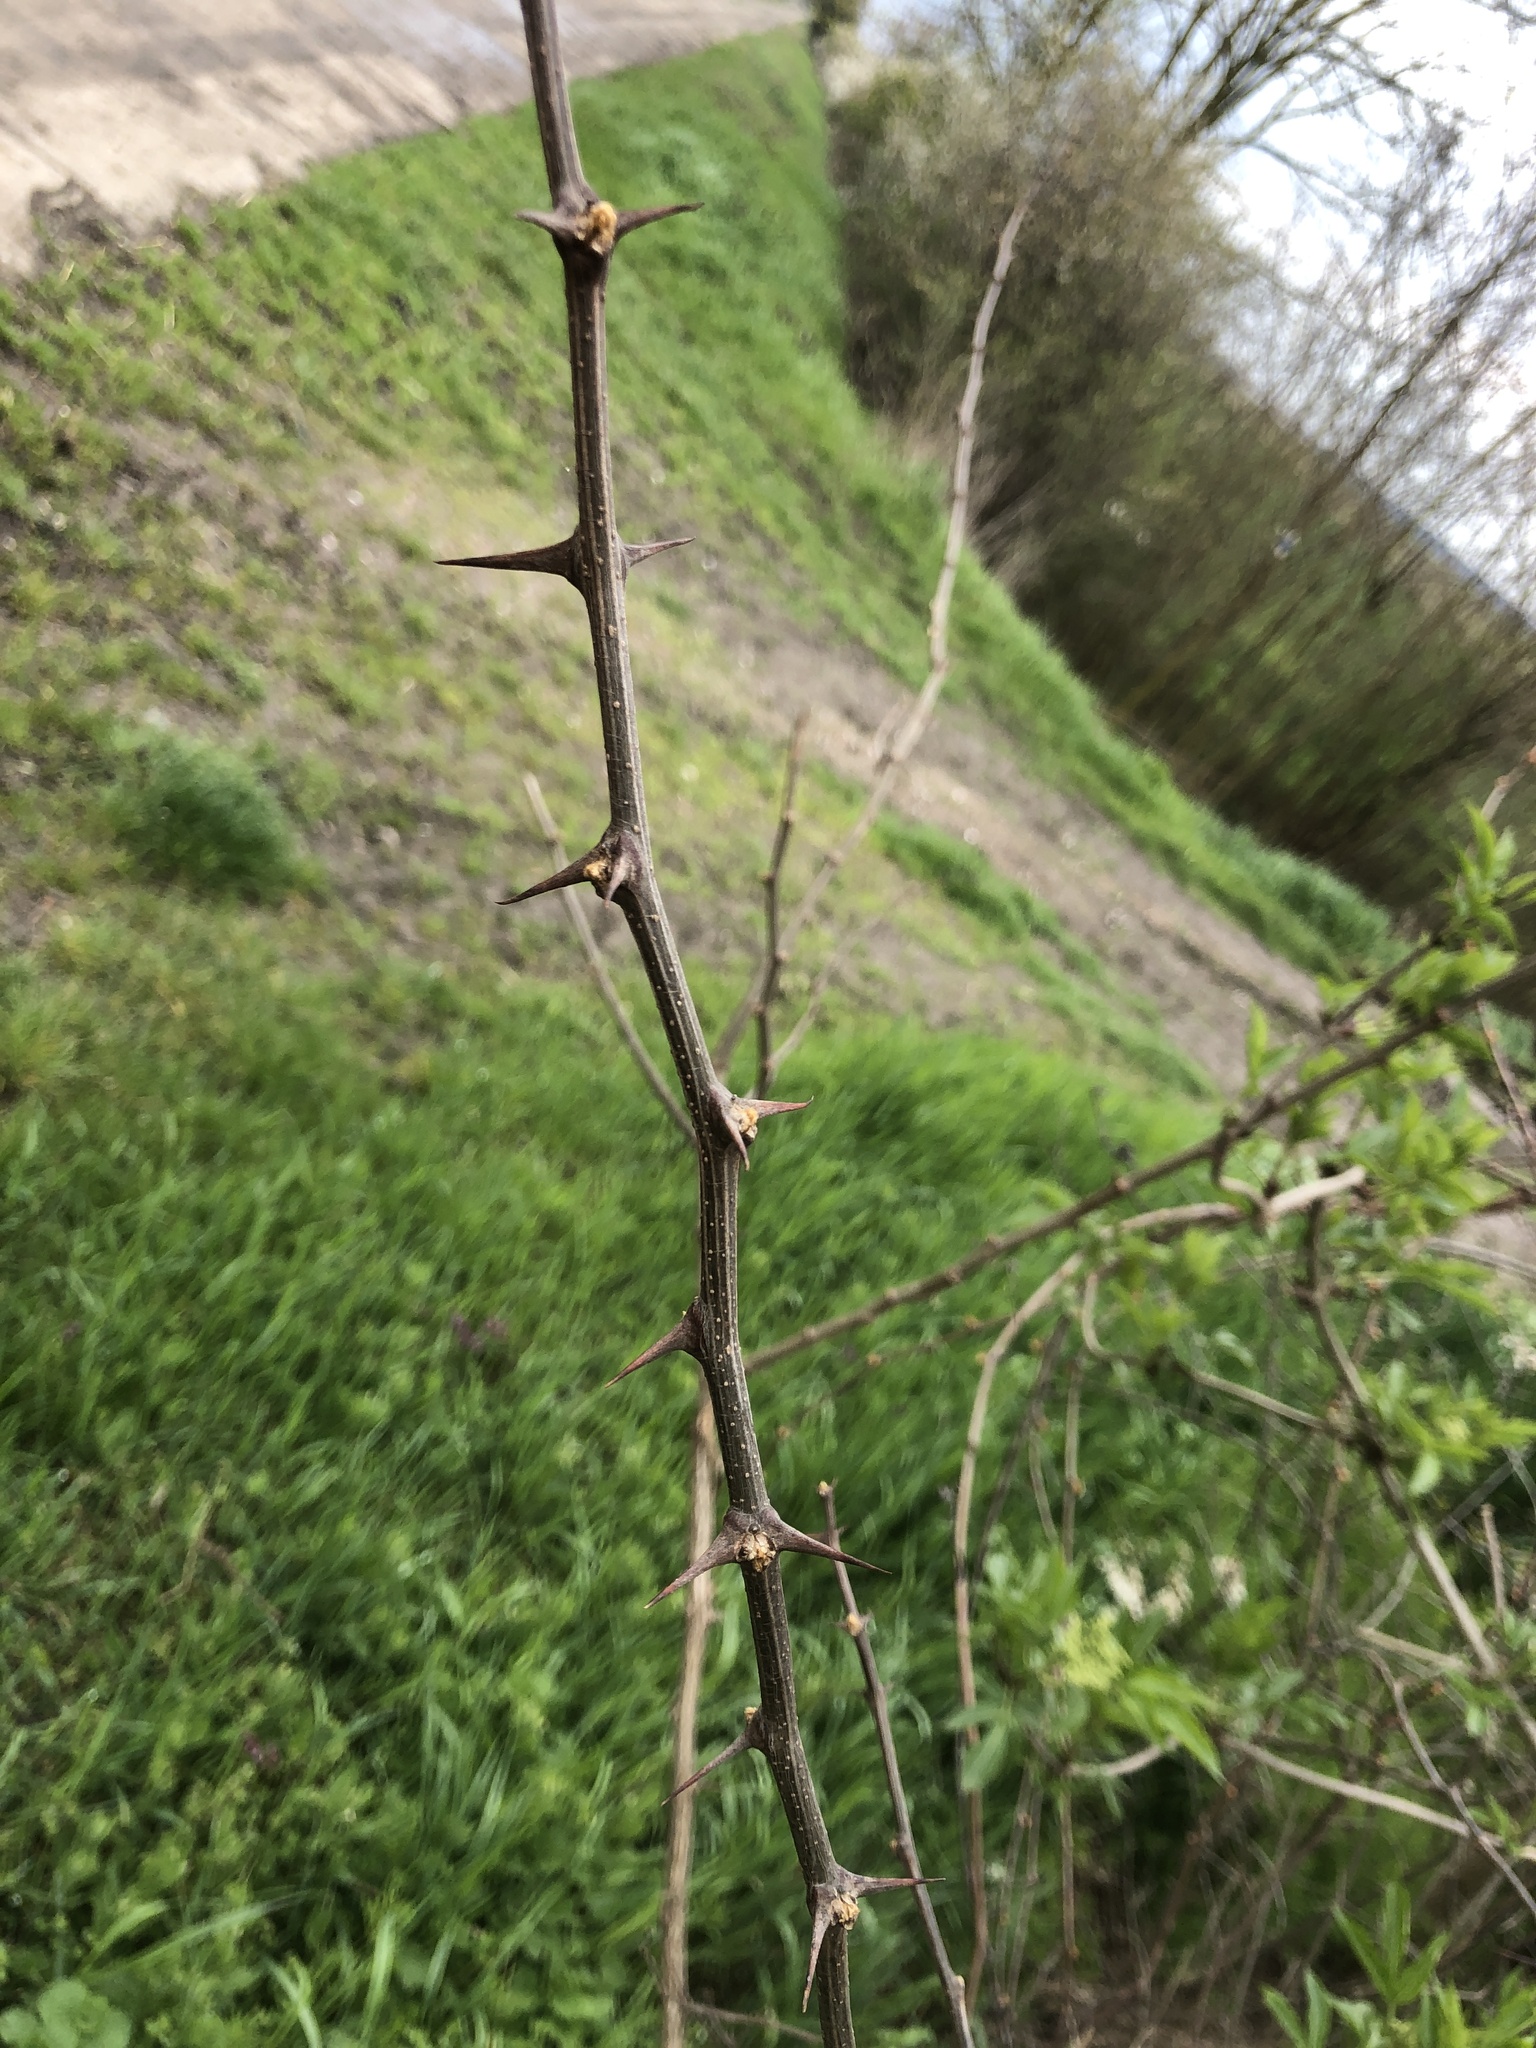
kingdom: Plantae
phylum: Tracheophyta
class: Magnoliopsida
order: Fabales
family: Fabaceae
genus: Robinia
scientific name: Robinia pseudoacacia
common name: Black locust
